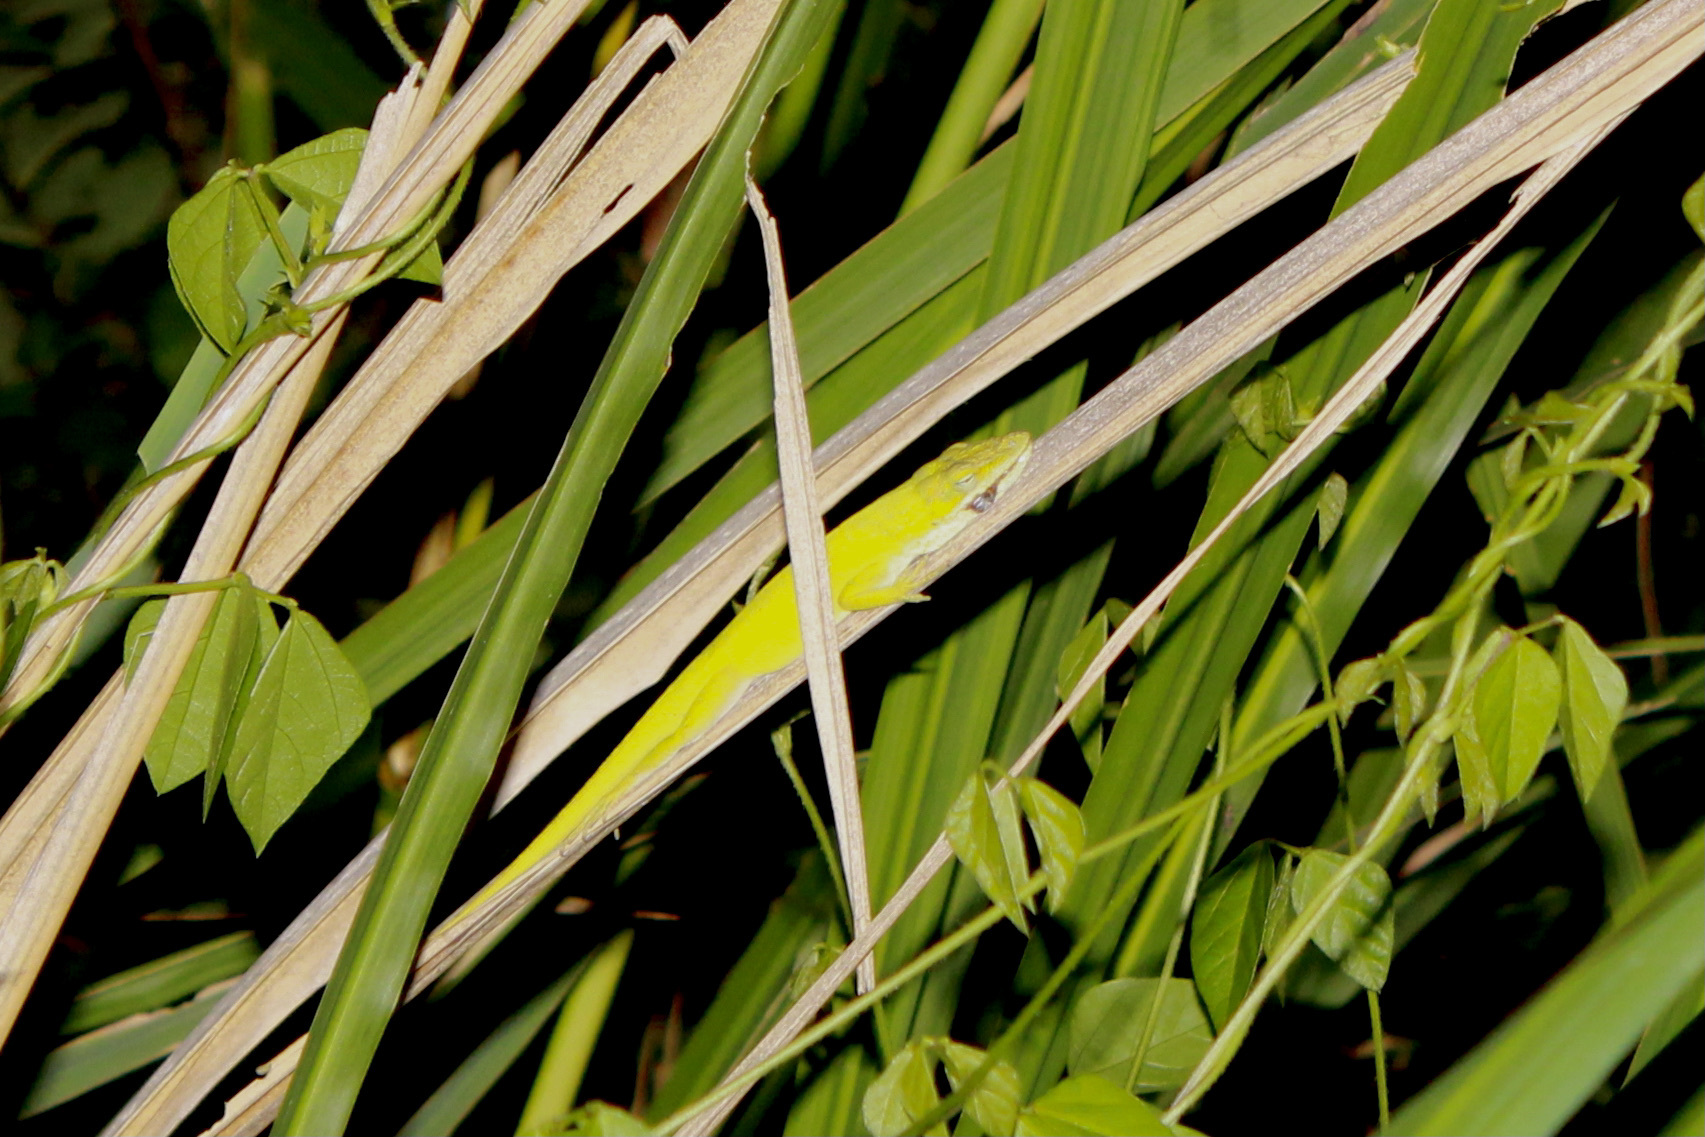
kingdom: Animalia
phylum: Chordata
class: Squamata
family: Dactyloidae
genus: Anolis
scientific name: Anolis carolinensis
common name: Green anole
